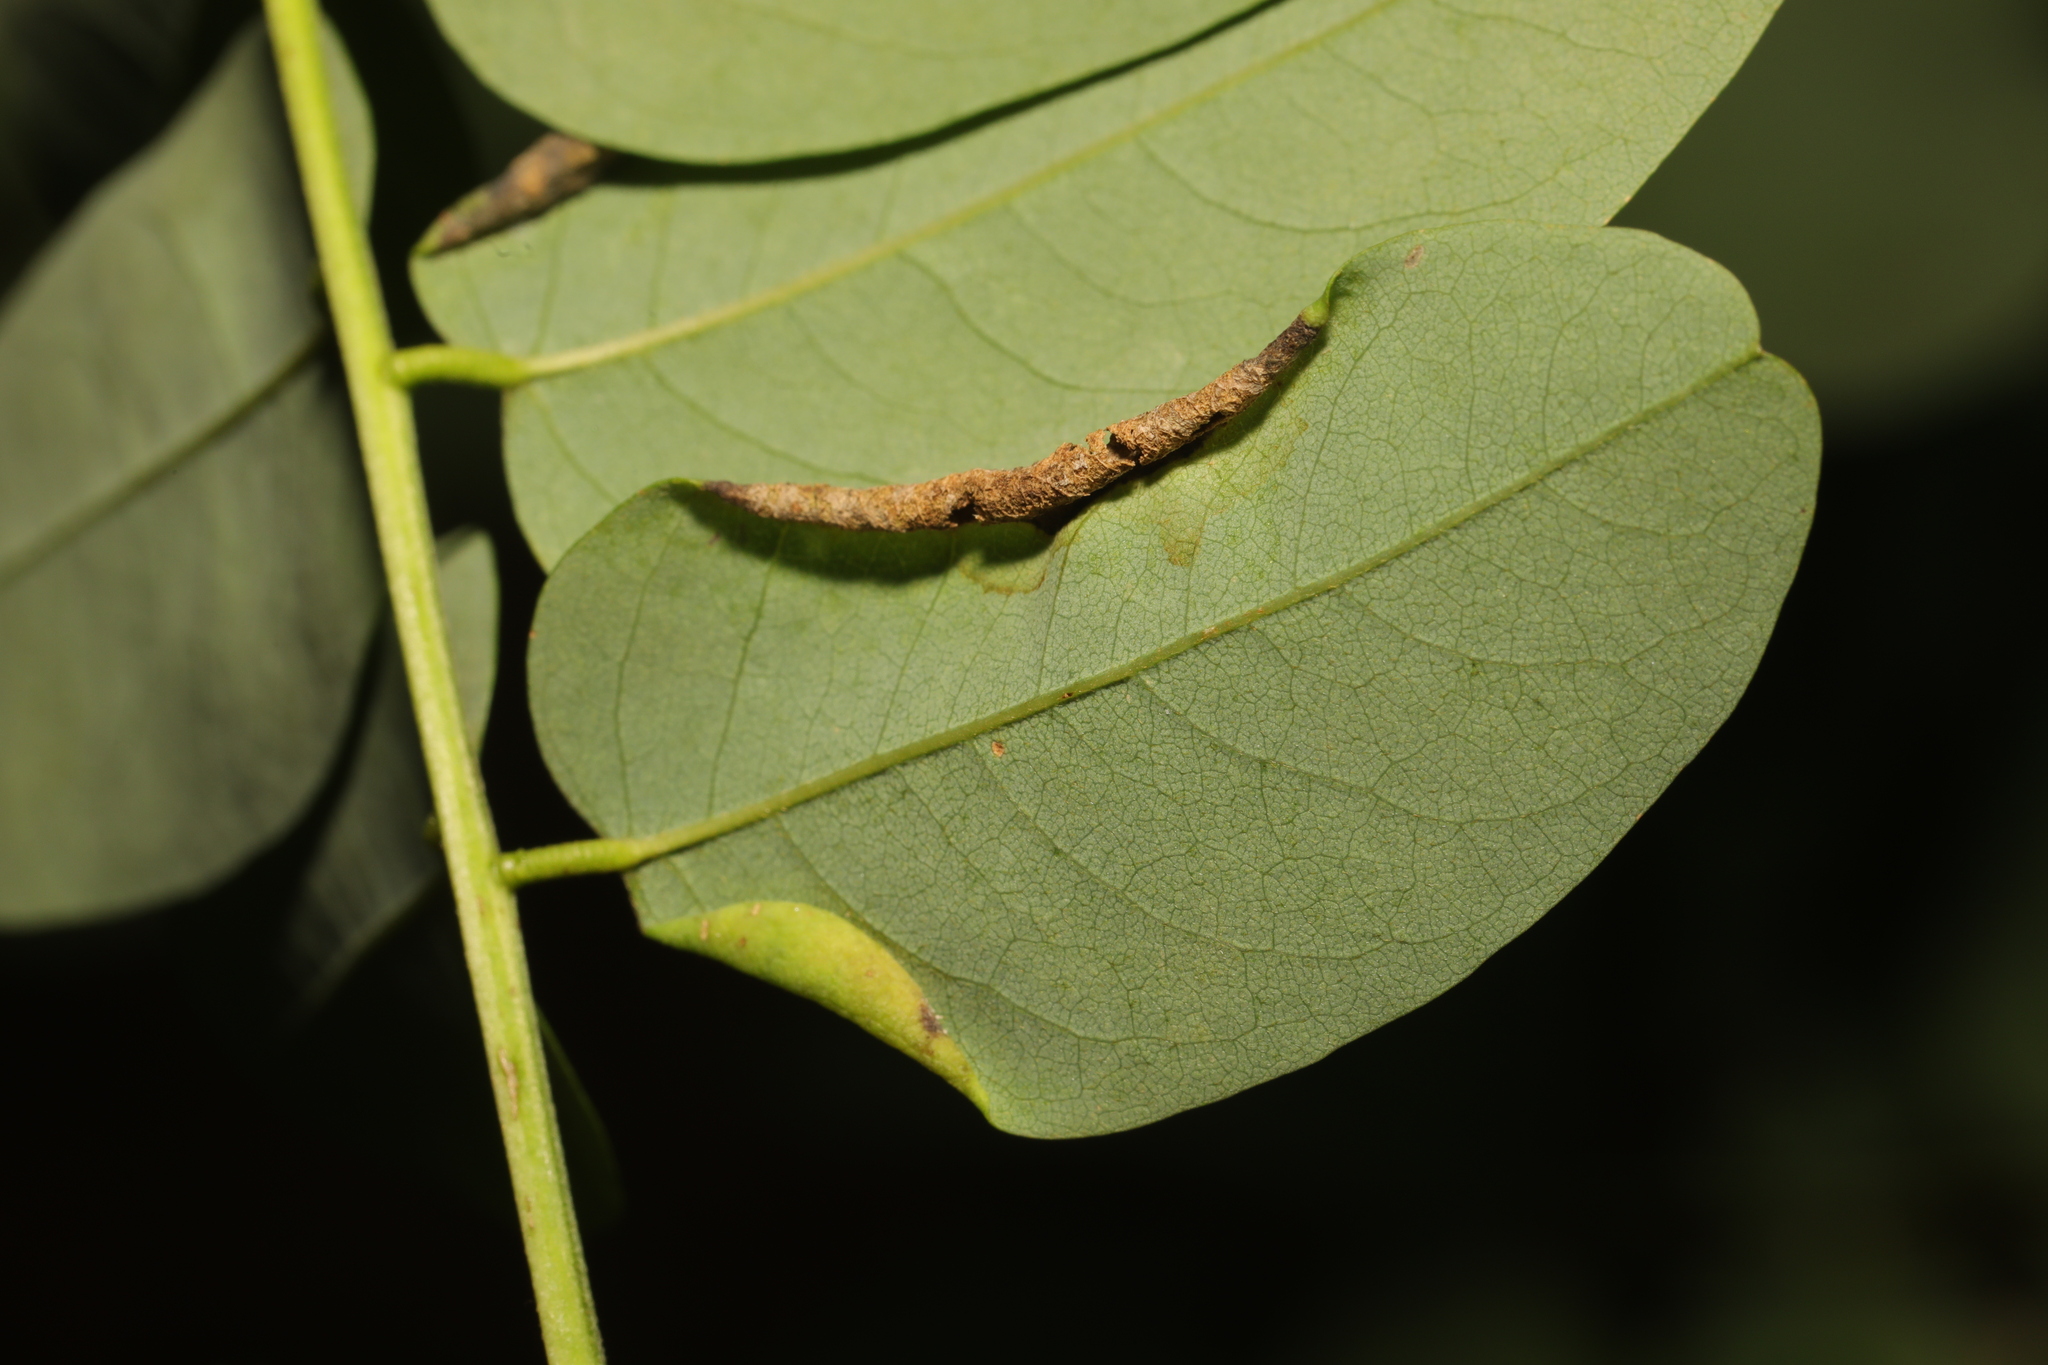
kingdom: Animalia
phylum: Arthropoda
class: Insecta
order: Diptera
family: Cecidomyiidae
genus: Obolodiplosis
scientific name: Obolodiplosis robiniae
